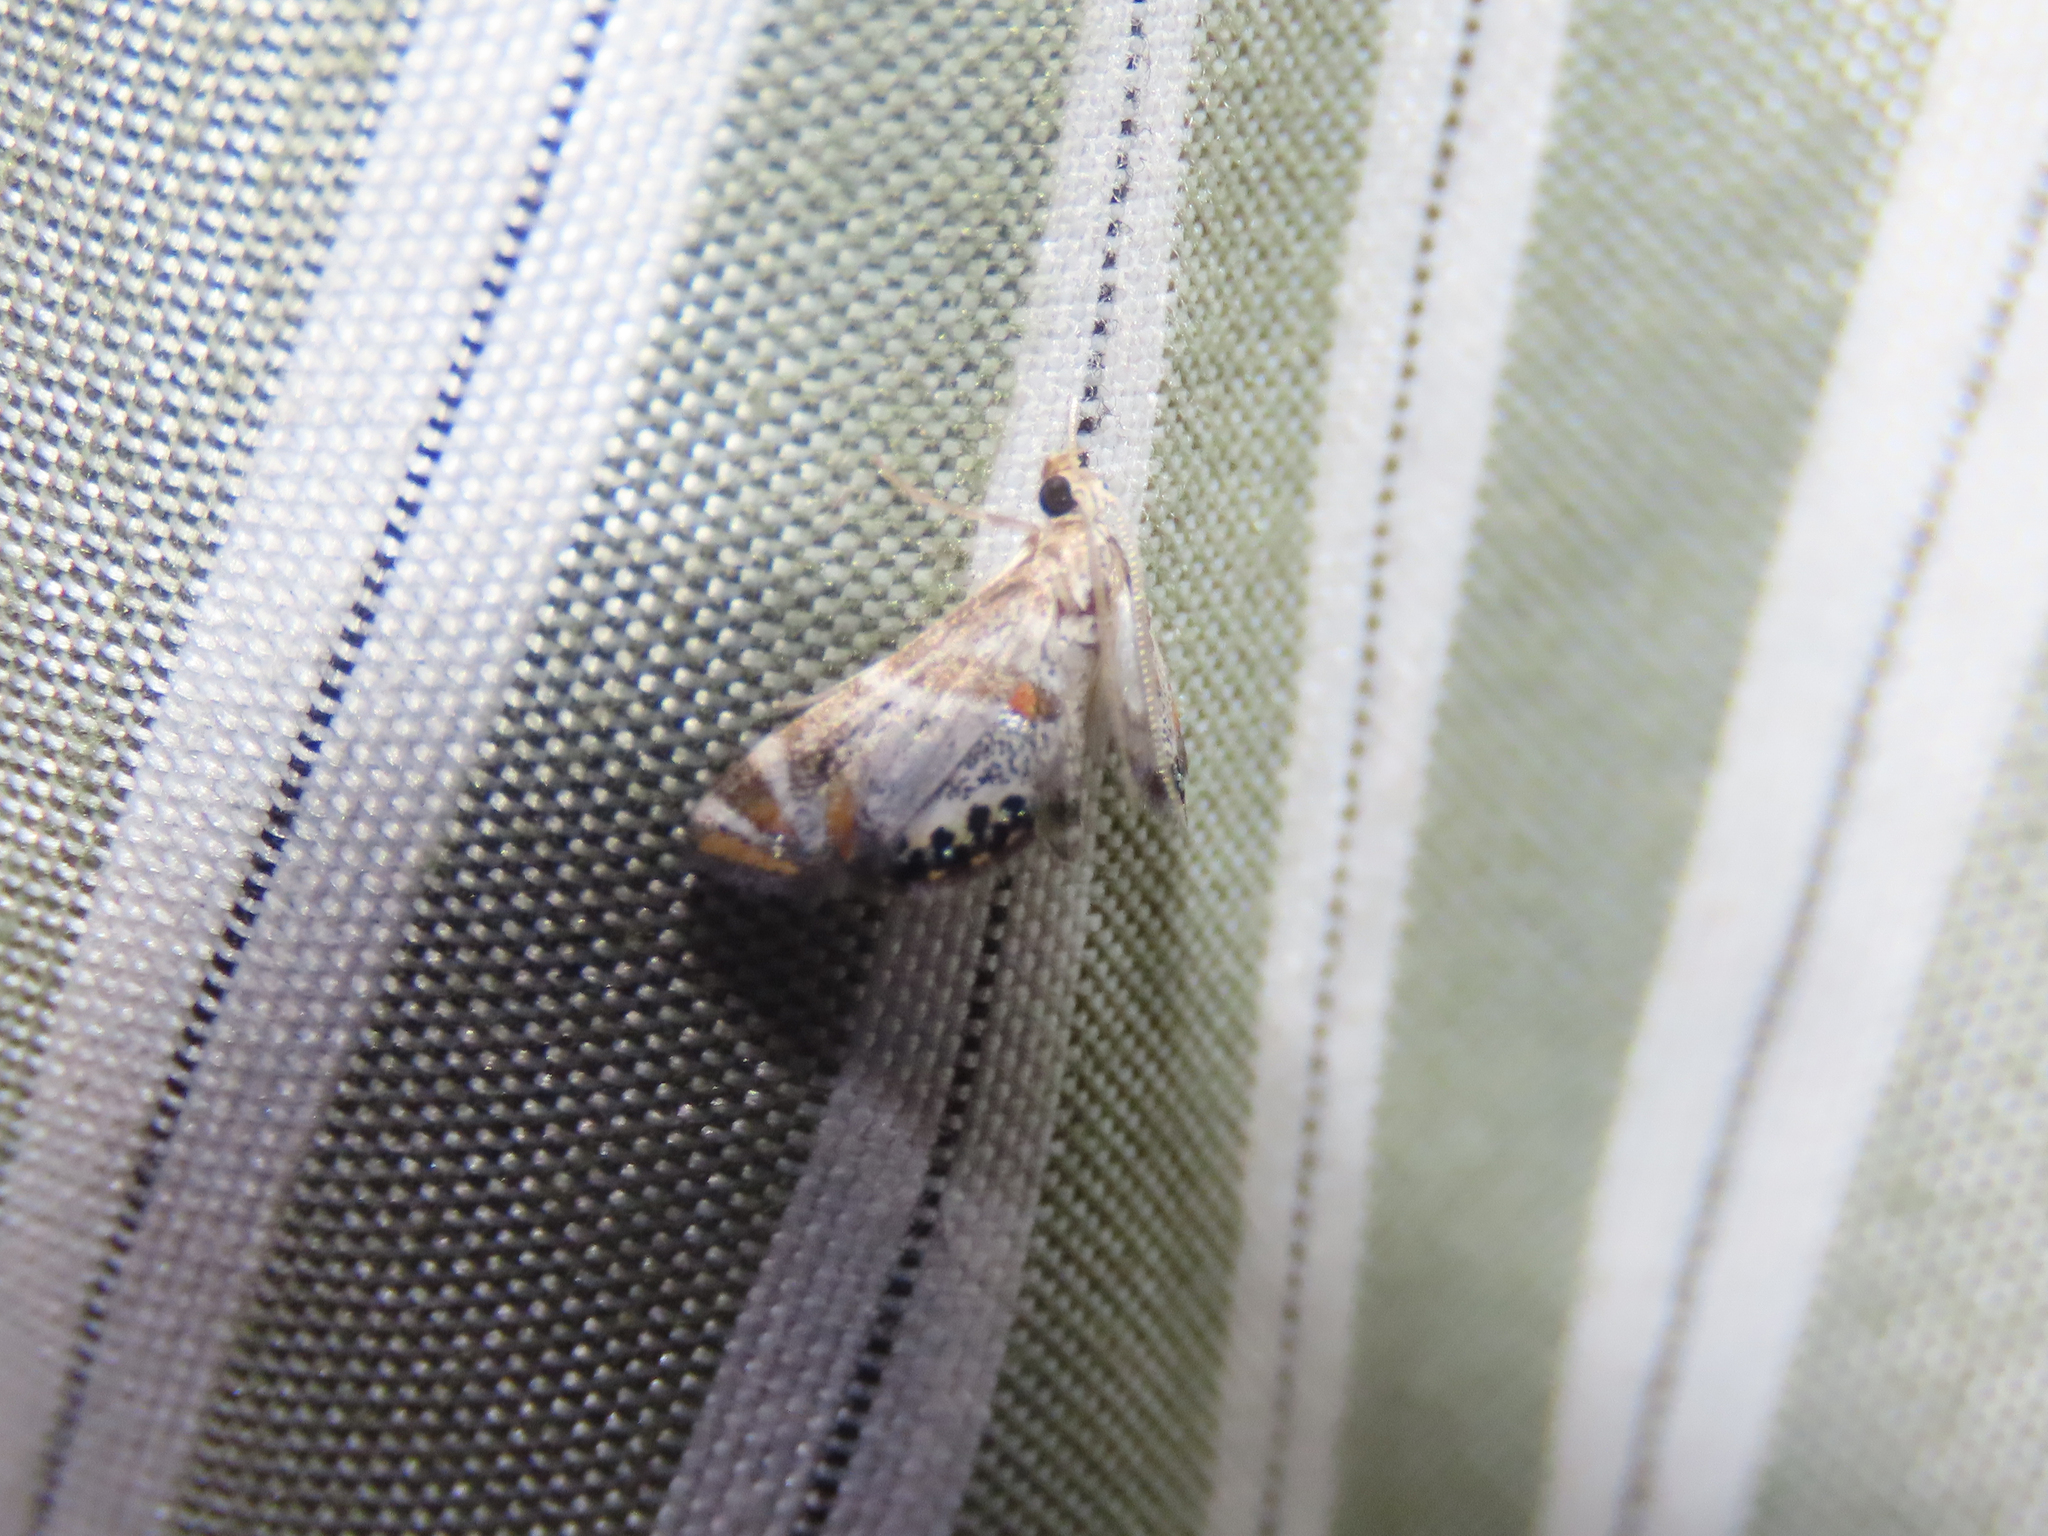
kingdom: Animalia
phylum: Arthropoda
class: Insecta
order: Lepidoptera
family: Crambidae
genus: Petrophila
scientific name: Petrophila jaliscalis
